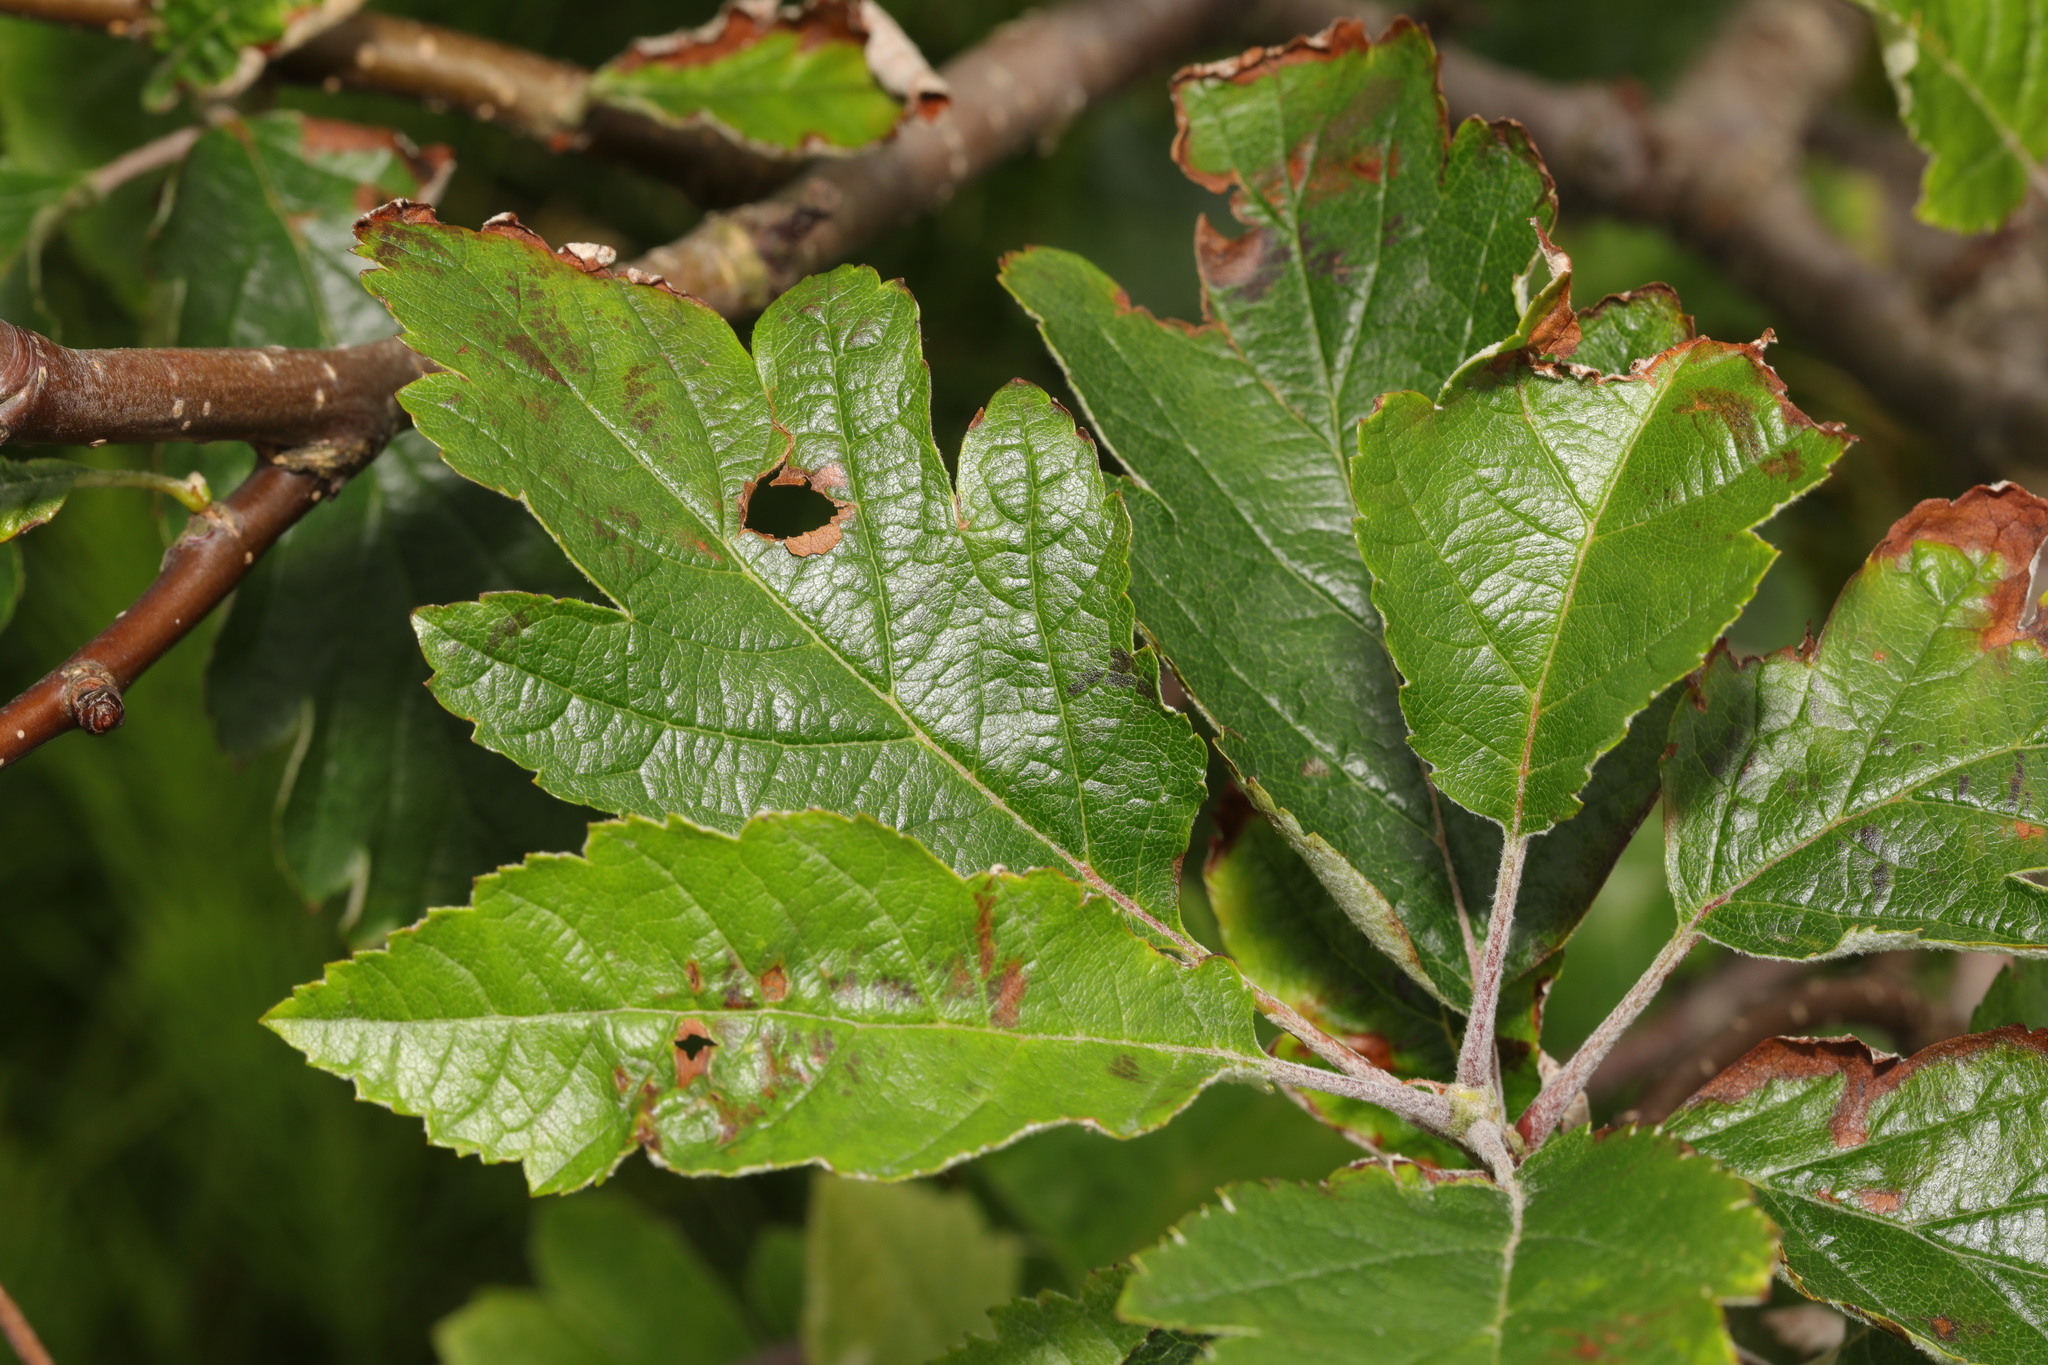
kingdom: Plantae
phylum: Tracheophyta
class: Magnoliopsida
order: Rosales
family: Rosaceae
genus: Scandosorbus
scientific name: Scandosorbus intermedia
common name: Swedish whitebeam
